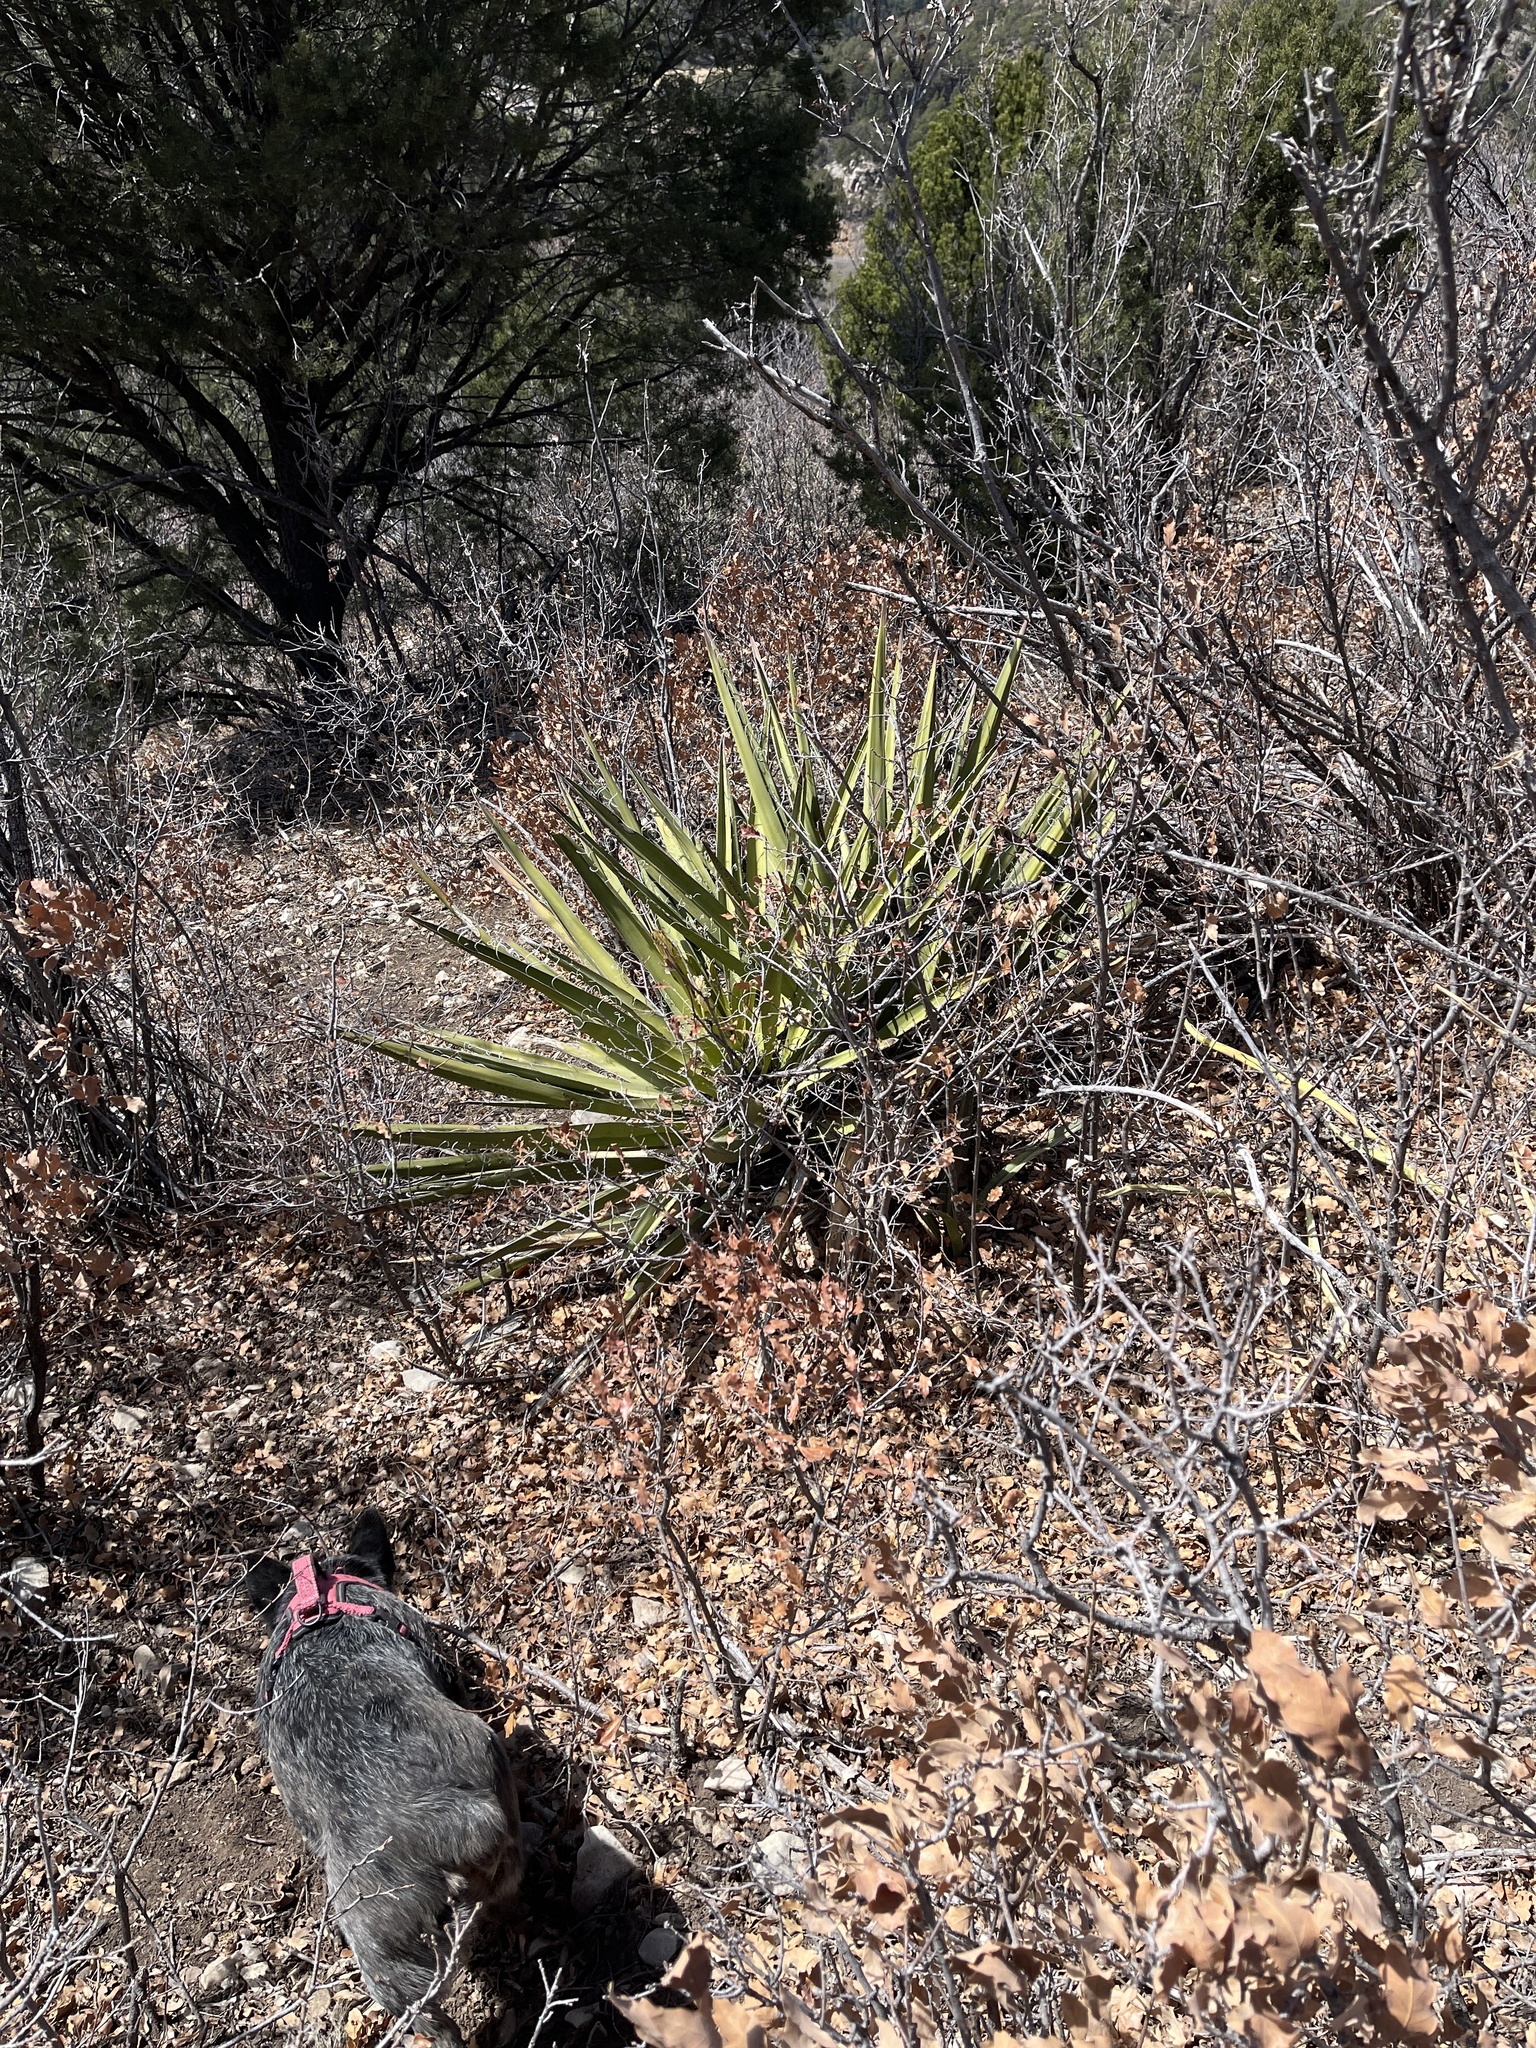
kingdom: Plantae
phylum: Tracheophyta
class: Liliopsida
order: Asparagales
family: Asparagaceae
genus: Yucca
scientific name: Yucca baccata
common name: Banana yucca
